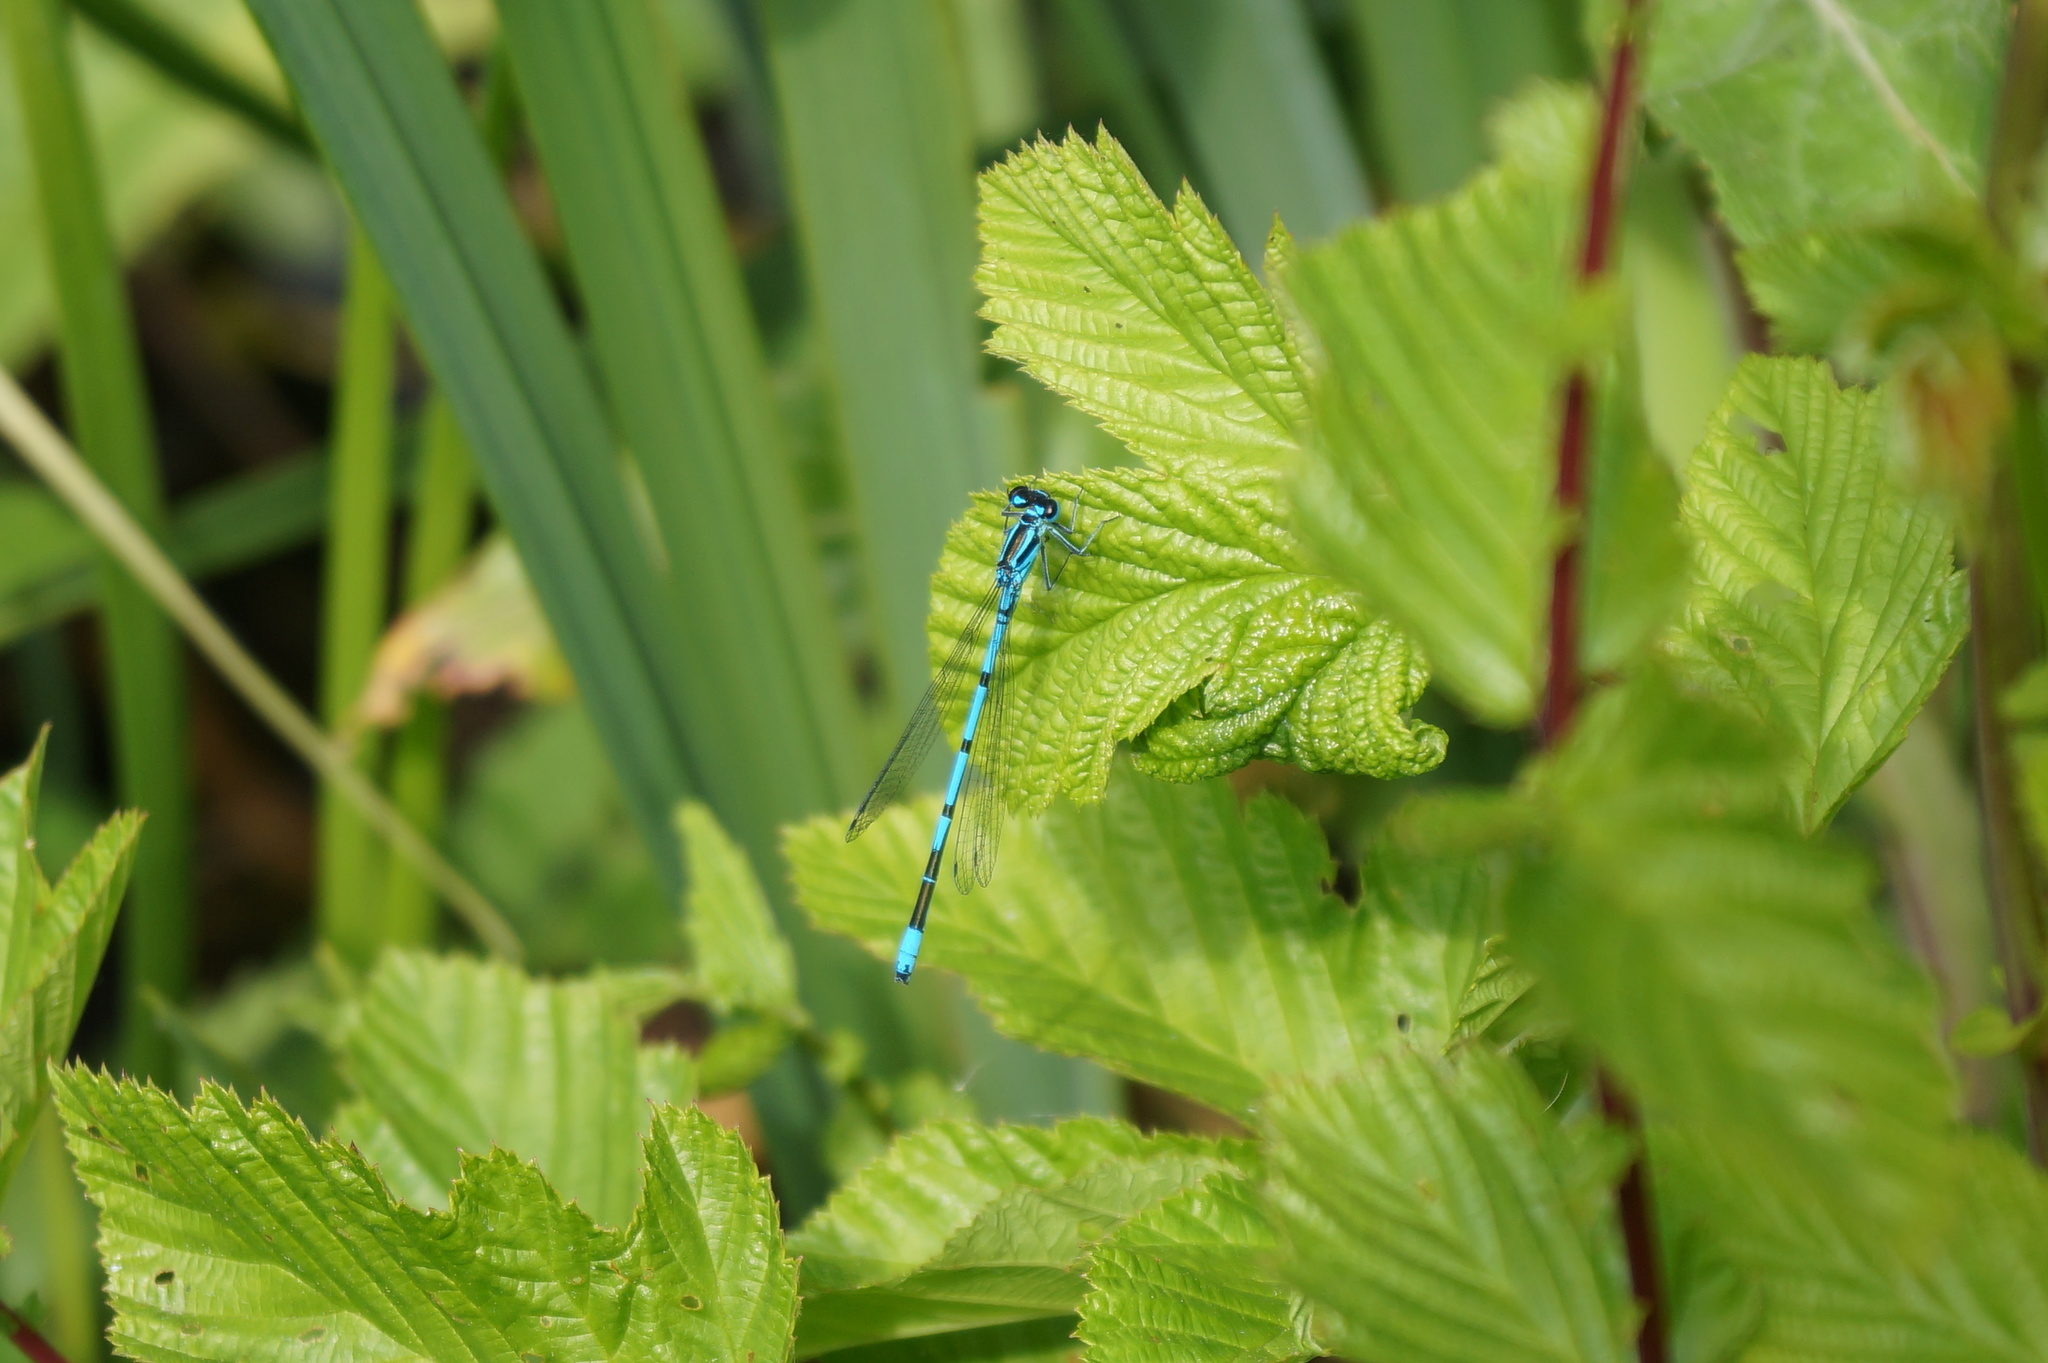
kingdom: Animalia
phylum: Arthropoda
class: Insecta
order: Odonata
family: Coenagrionidae
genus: Coenagrion
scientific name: Coenagrion puella
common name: Azure damselfly
